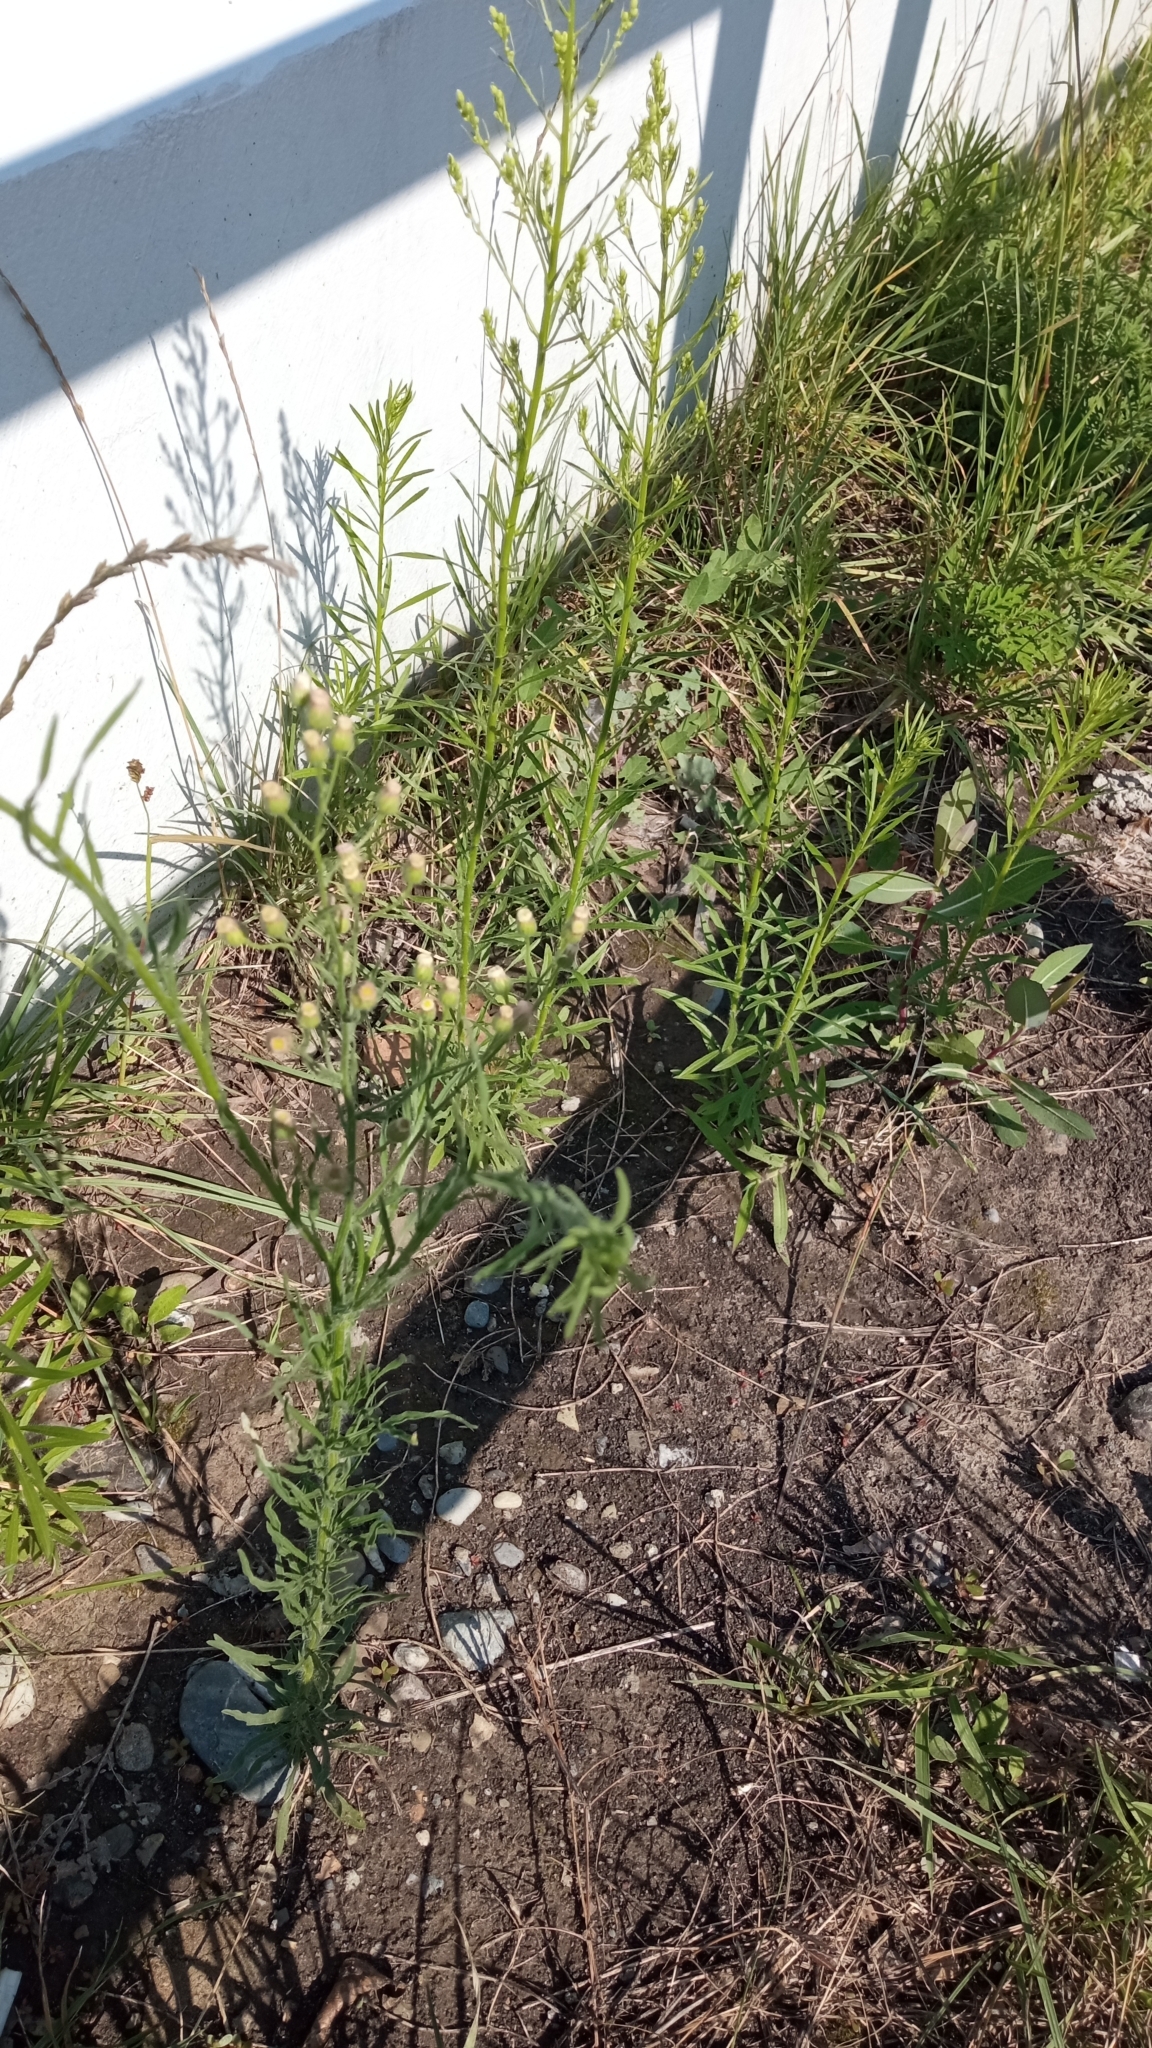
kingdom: Plantae
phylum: Tracheophyta
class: Magnoliopsida
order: Asterales
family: Asteraceae
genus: Erigeron
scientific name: Erigeron bonariensis
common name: Argentine fleabane
